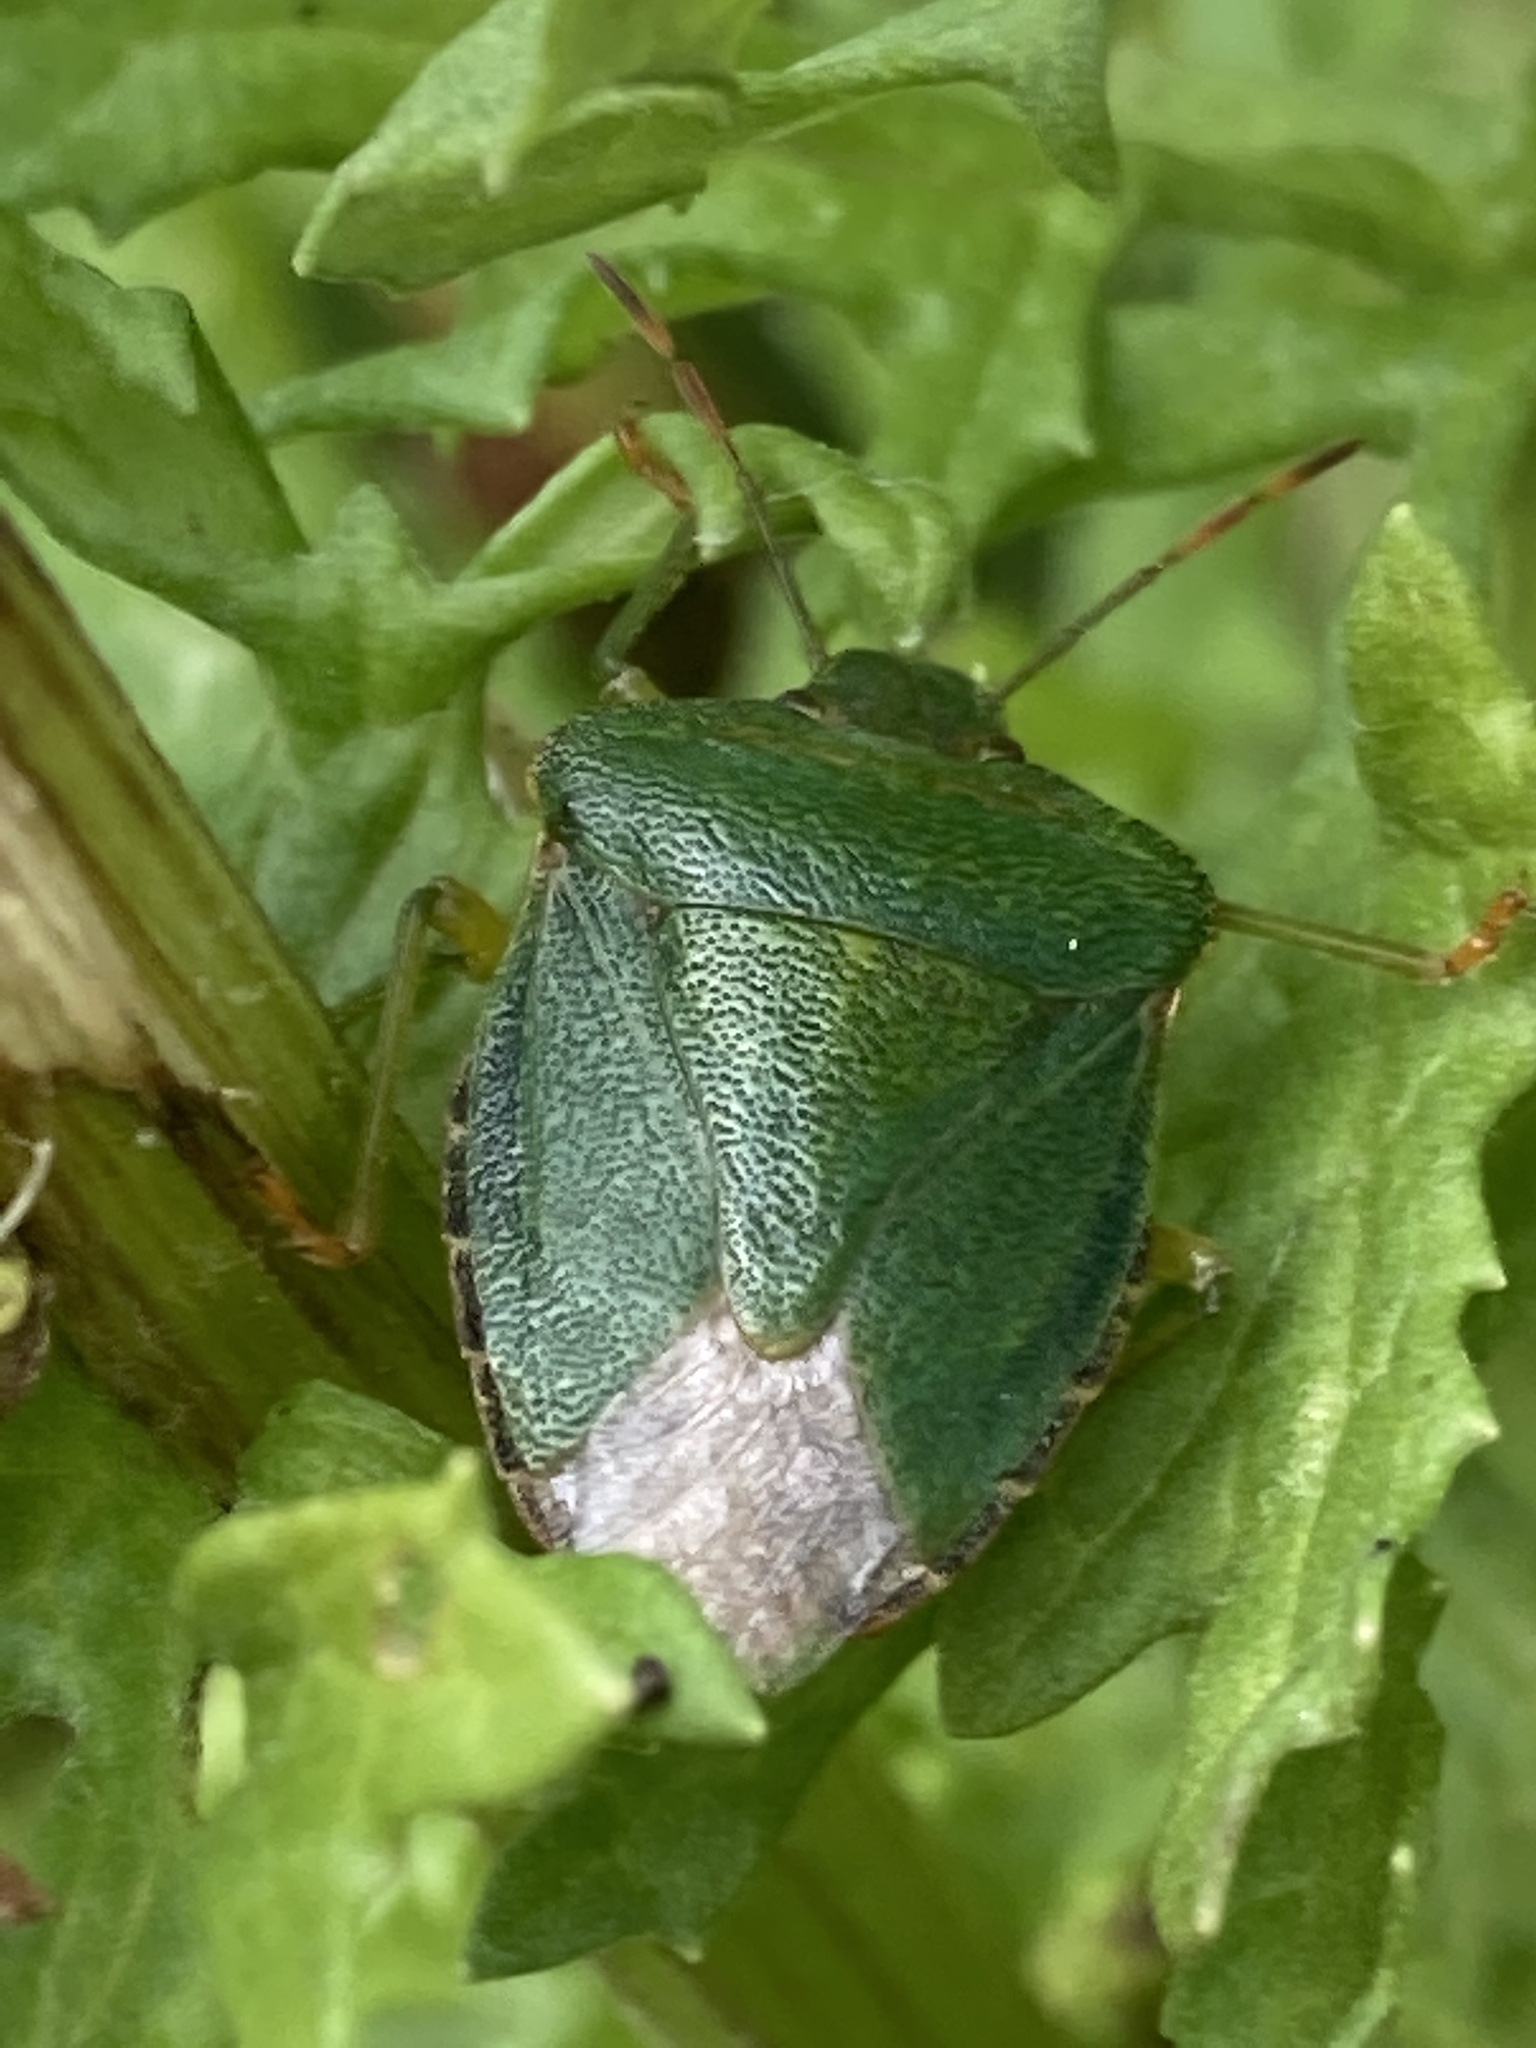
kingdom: Animalia
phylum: Arthropoda
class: Insecta
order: Hemiptera
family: Pentatomidae
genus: Palomena
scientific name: Palomena prasina
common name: Green shieldbug
